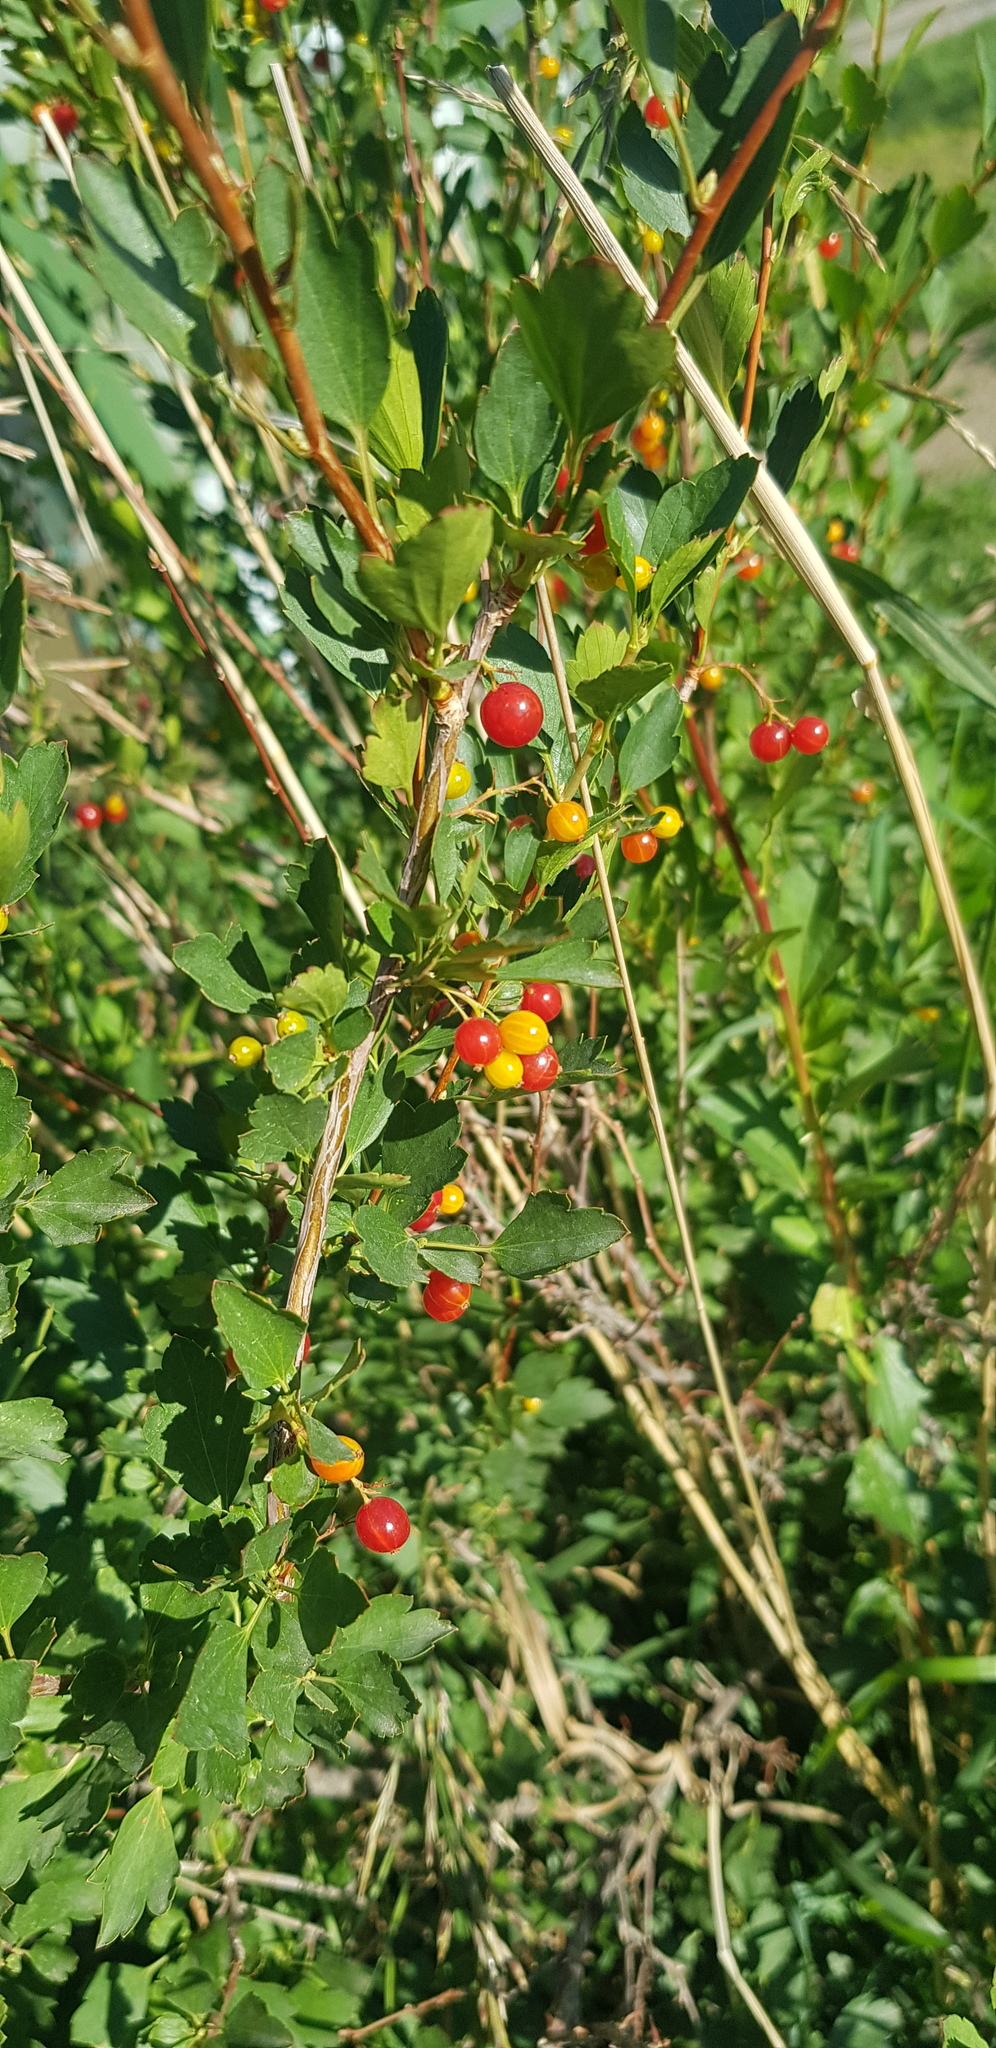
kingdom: Plantae
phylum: Tracheophyta
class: Magnoliopsida
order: Saxifragales
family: Grossulariaceae
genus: Ribes
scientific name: Ribes diacanthum
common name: Siberian currant
